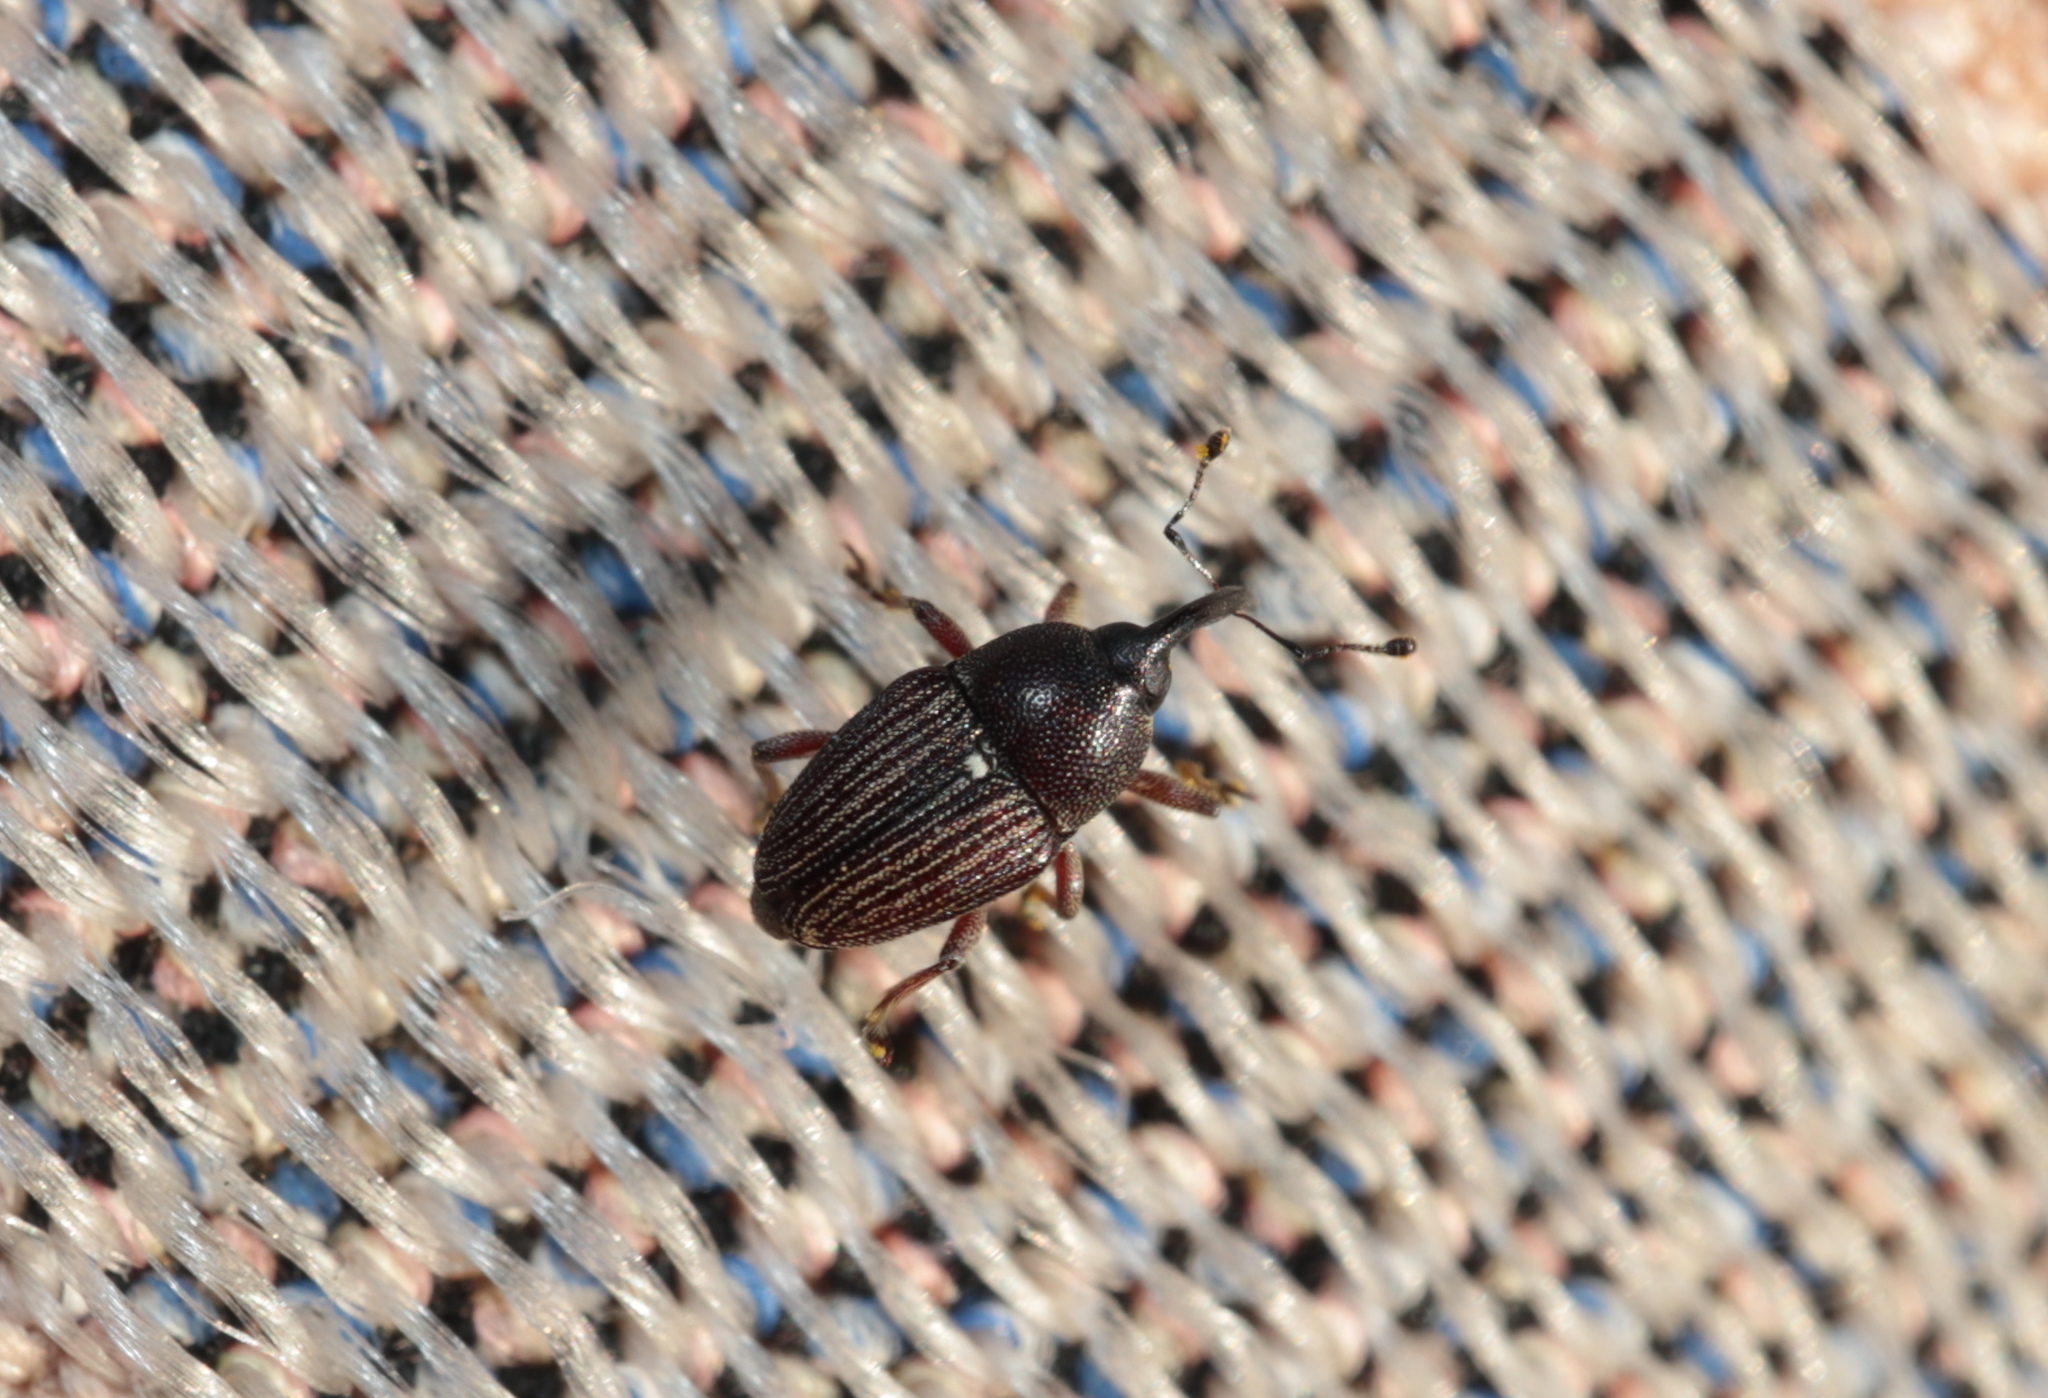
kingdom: Animalia
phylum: Arthropoda
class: Insecta
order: Coleoptera
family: Curculionidae
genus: Odontocorynus
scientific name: Odontocorynus salebrosus
